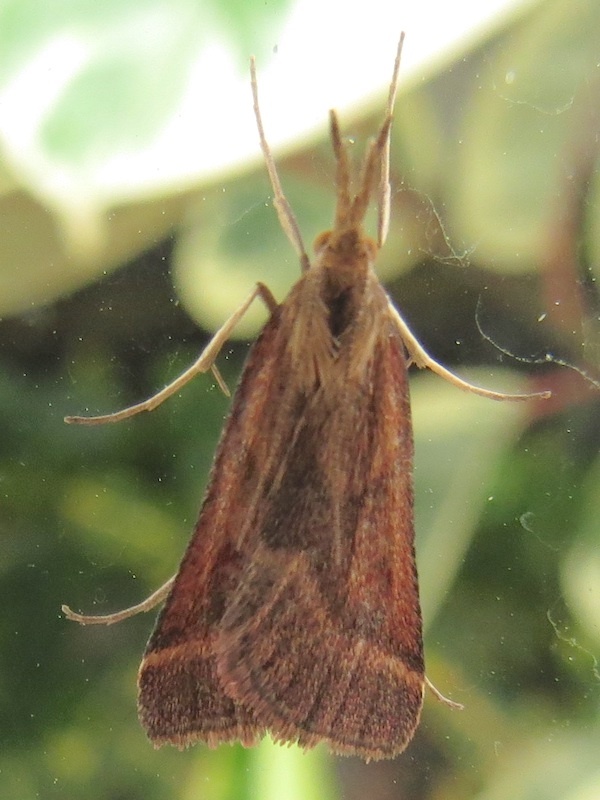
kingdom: Animalia
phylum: Arthropoda
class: Insecta
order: Lepidoptera
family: Pyralidae
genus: Synaphe
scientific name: Synaphe punctalis
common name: Long-legged tabby
